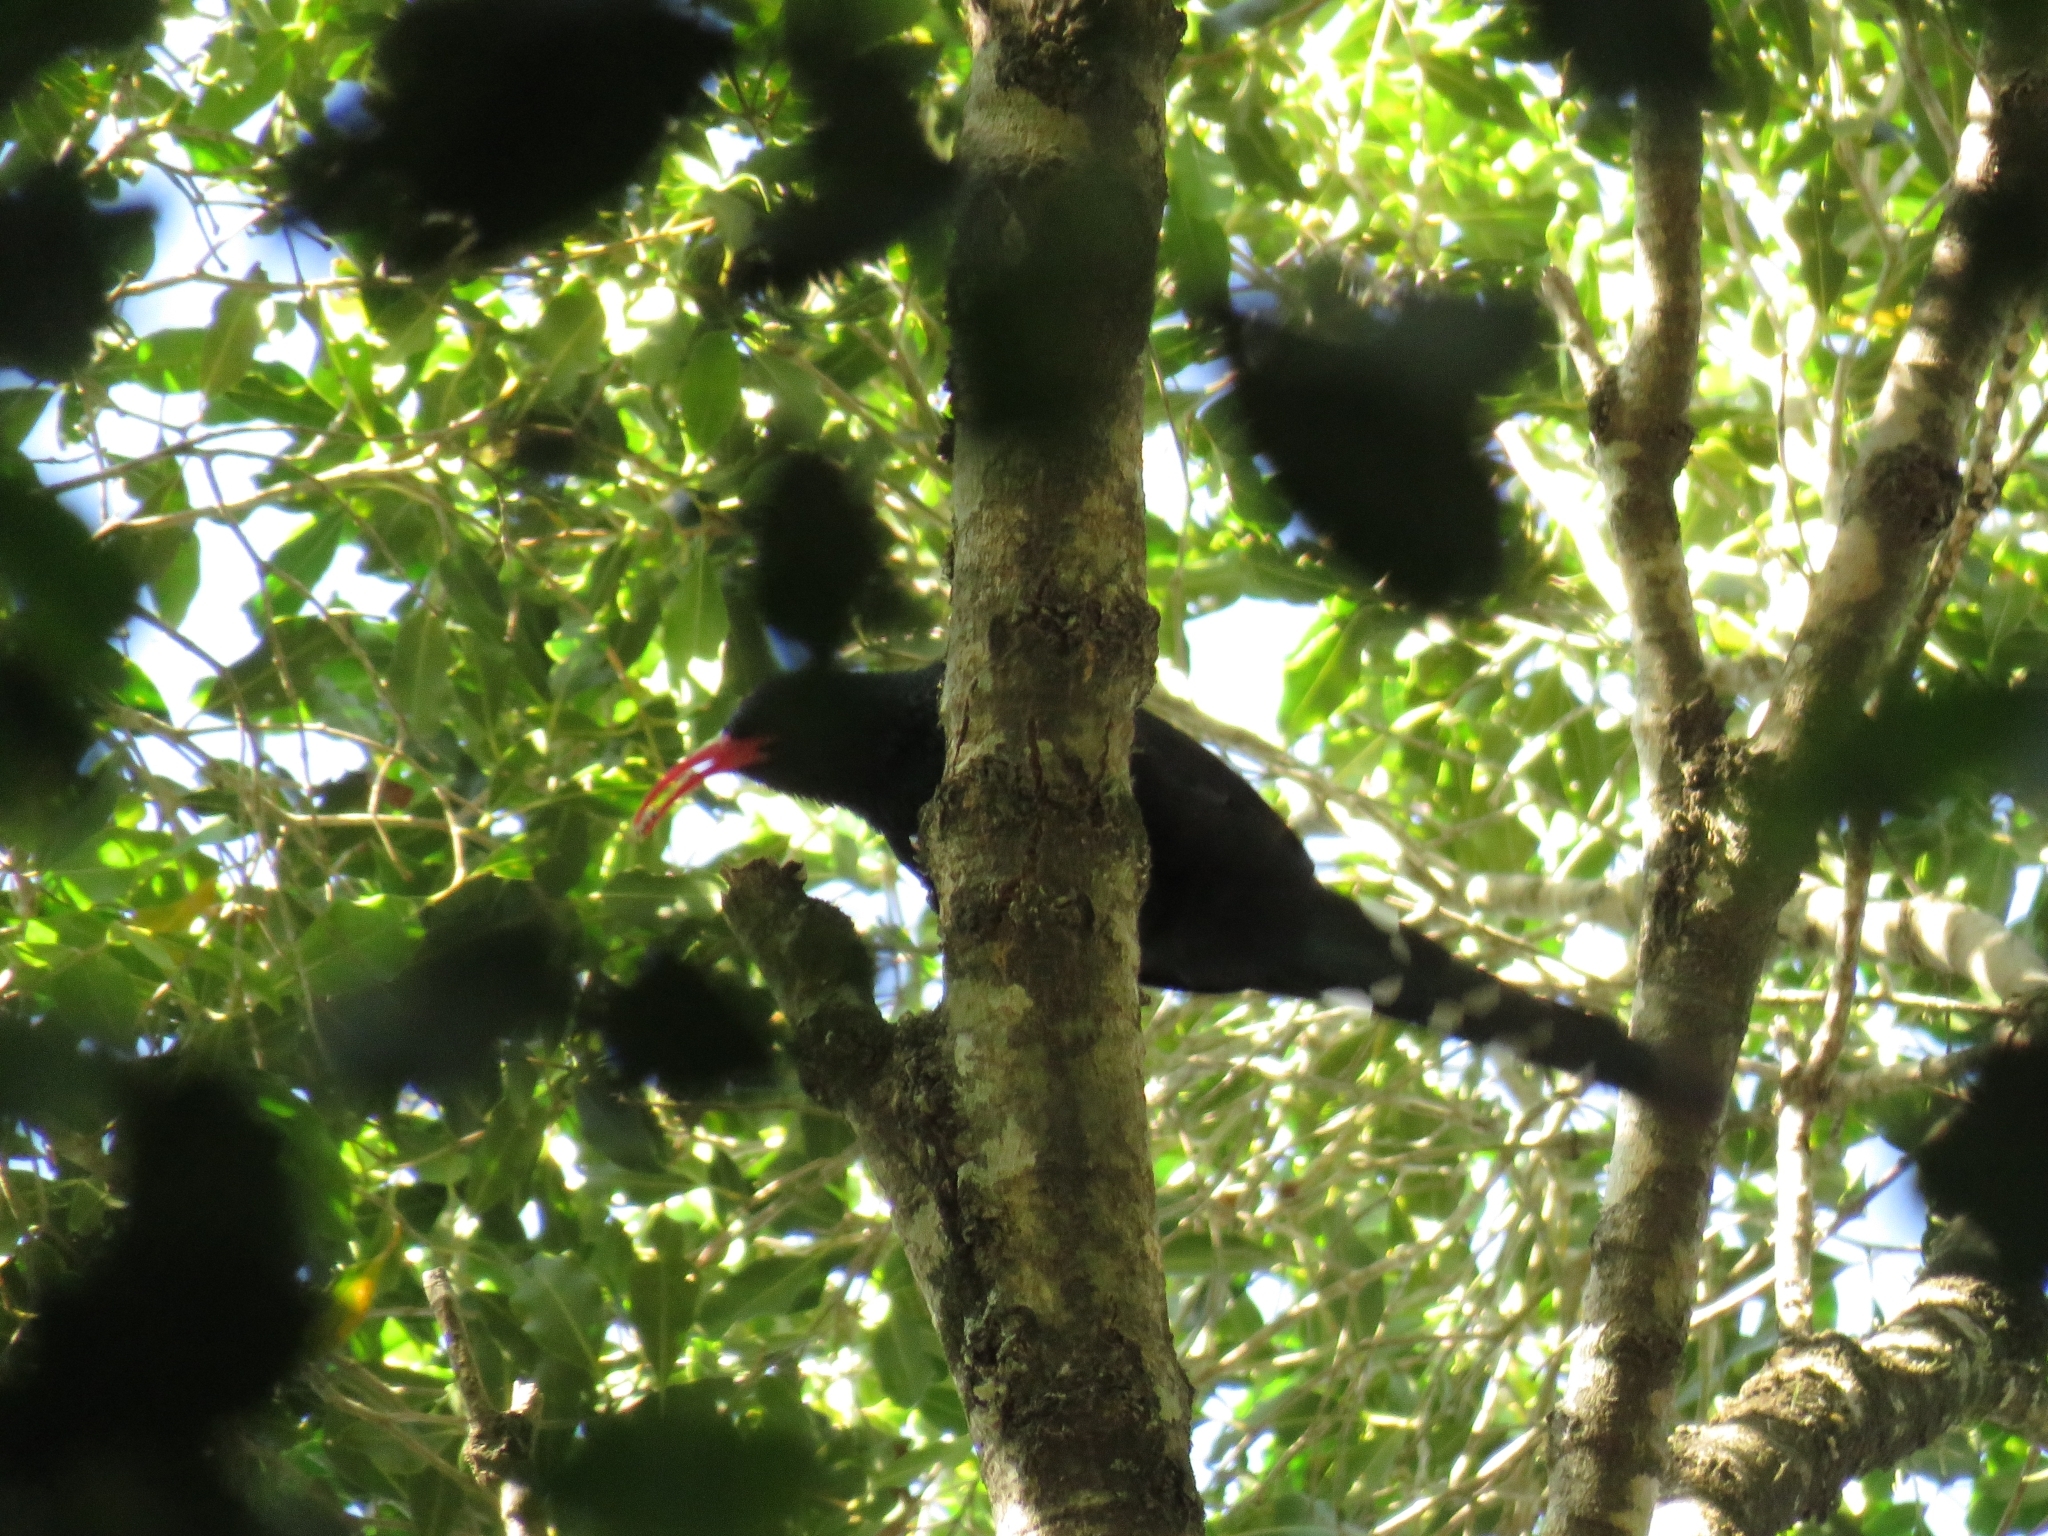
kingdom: Animalia
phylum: Chordata
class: Aves
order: Bucerotiformes
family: Phoeniculidae
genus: Phoeniculus
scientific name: Phoeniculus purpureus
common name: Green woodhoopoe
